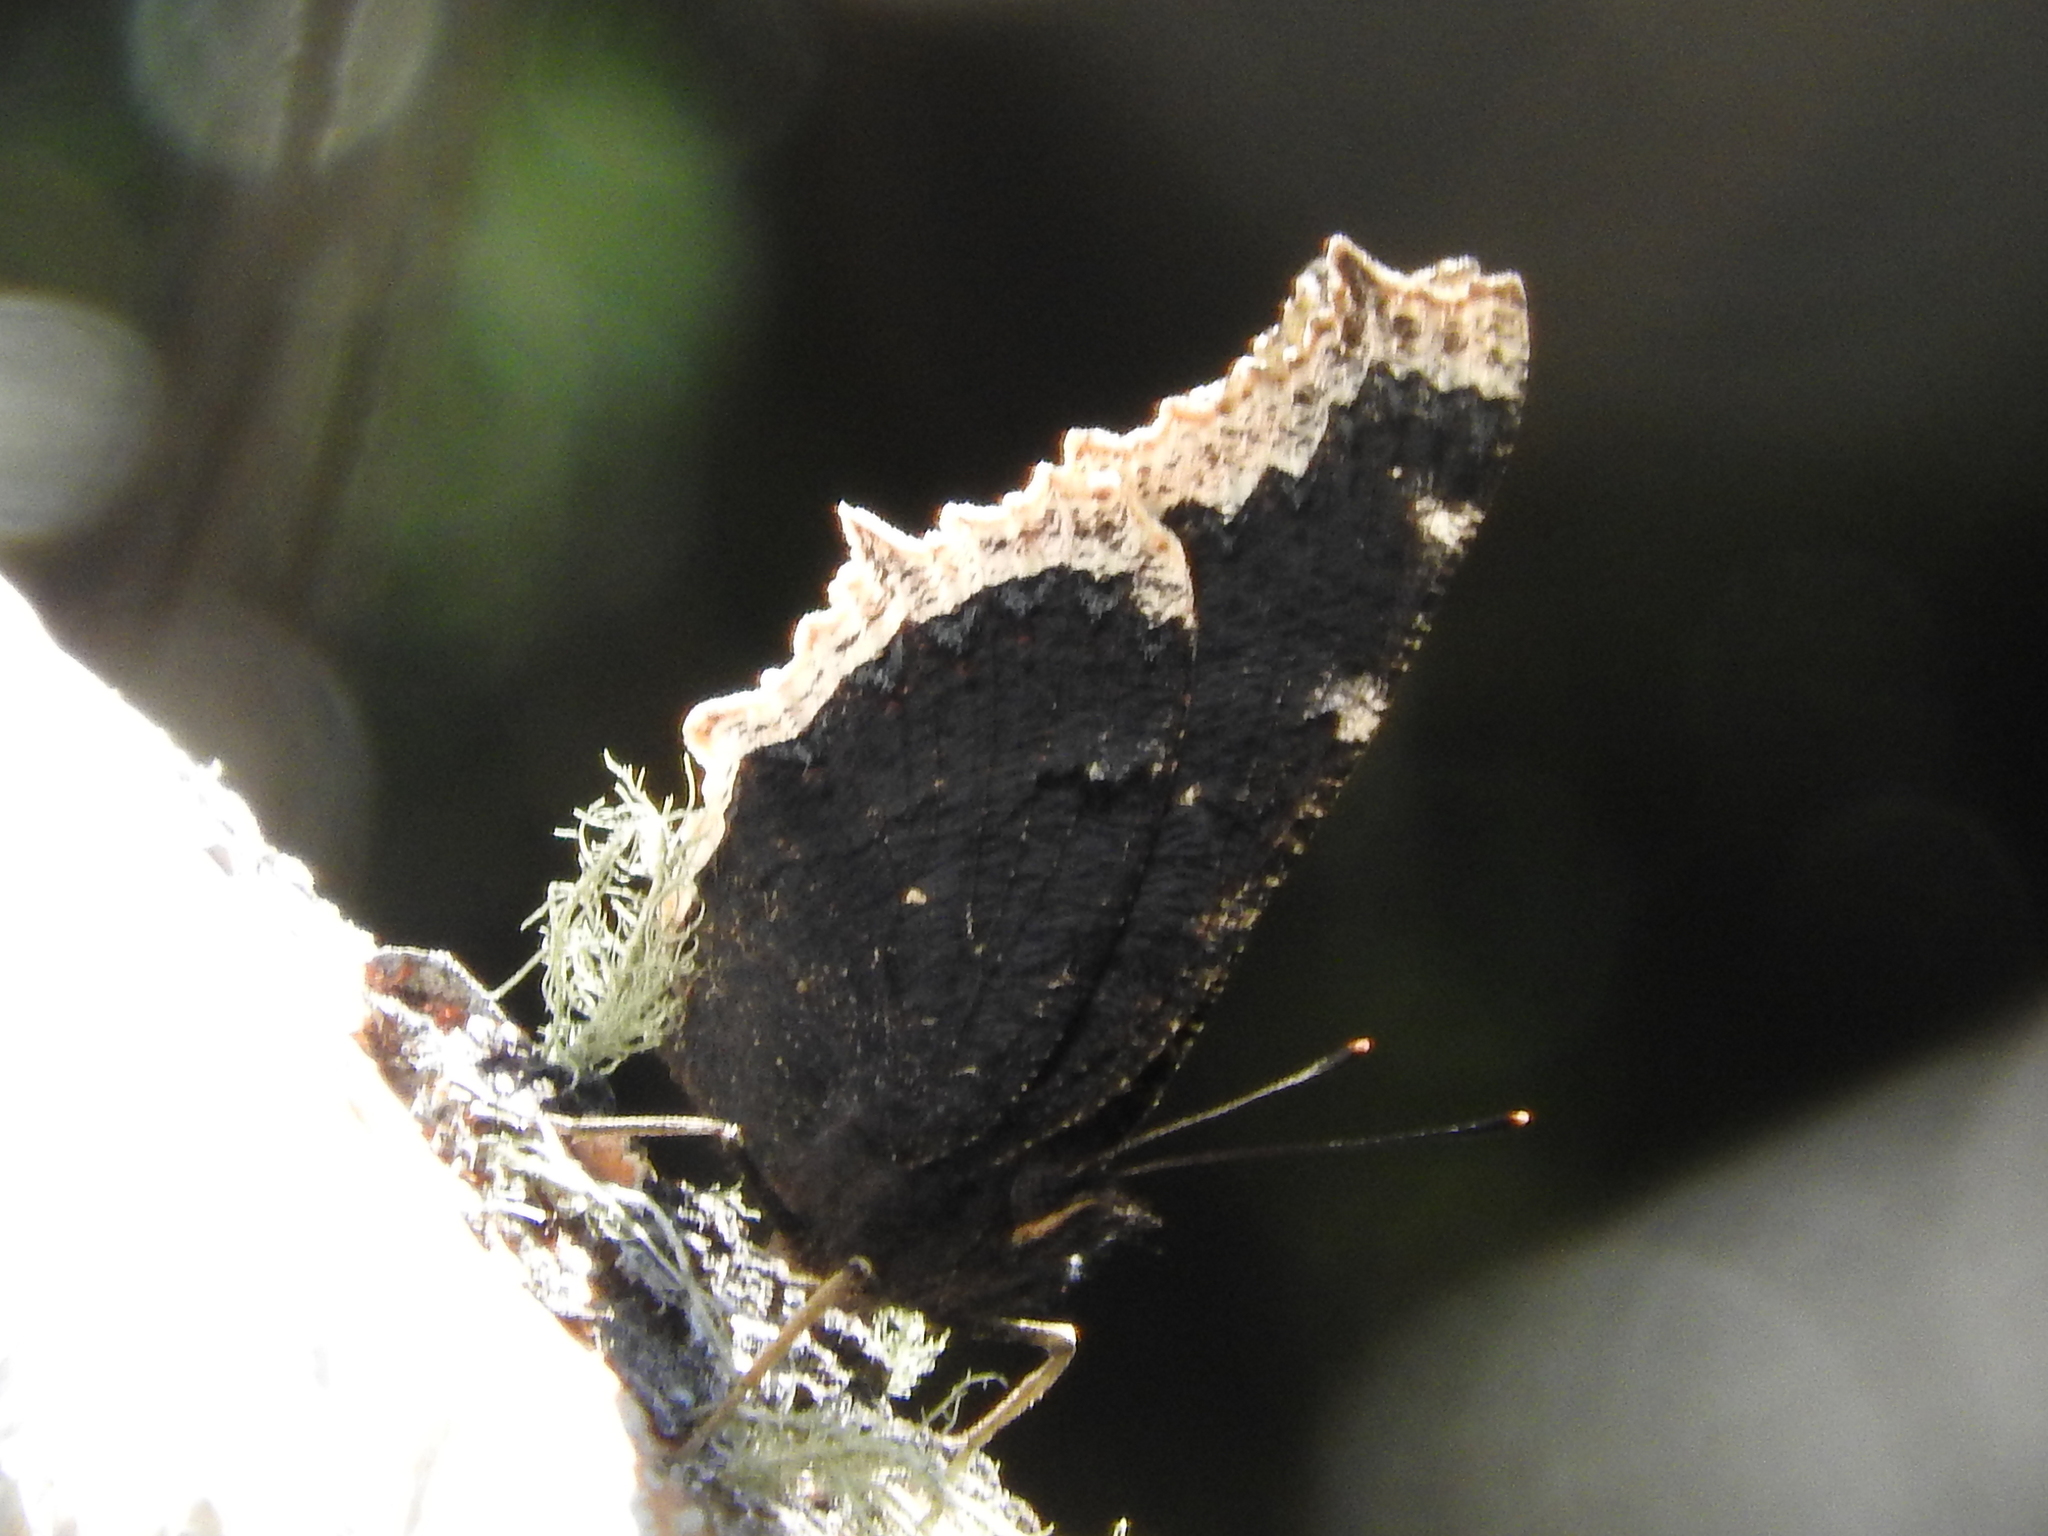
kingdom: Animalia
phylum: Arthropoda
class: Insecta
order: Lepidoptera
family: Nymphalidae
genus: Nymphalis
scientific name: Nymphalis antiopa
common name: Camberwell beauty
